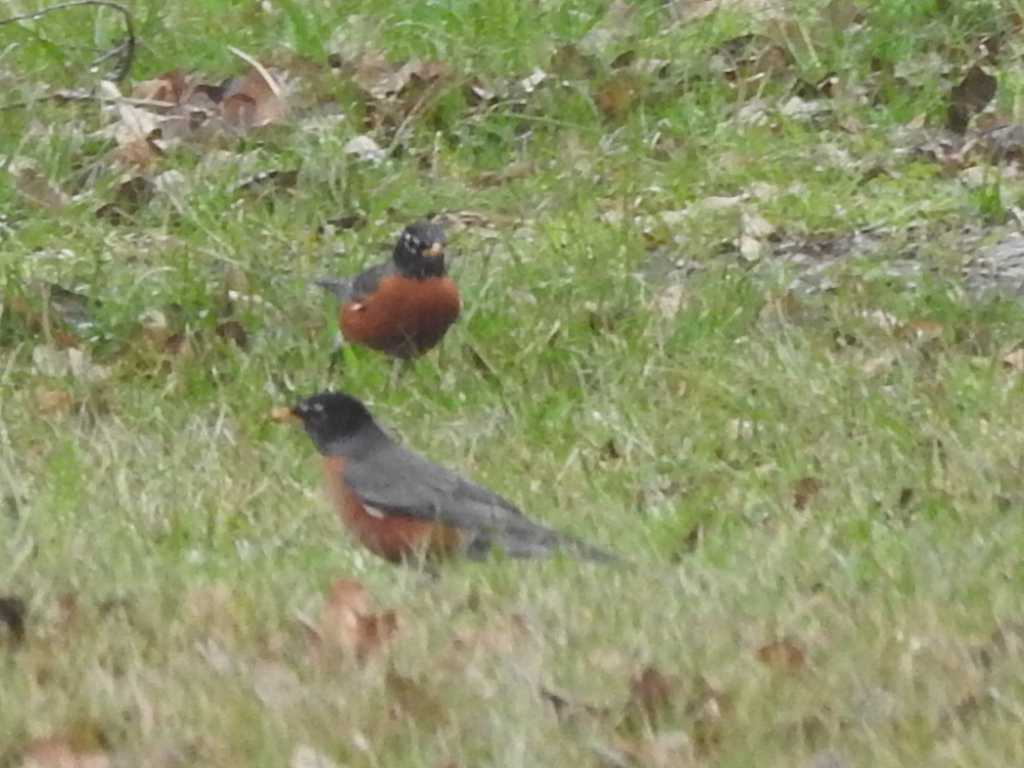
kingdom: Animalia
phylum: Chordata
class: Aves
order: Passeriformes
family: Turdidae
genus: Turdus
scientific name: Turdus migratorius
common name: American robin
